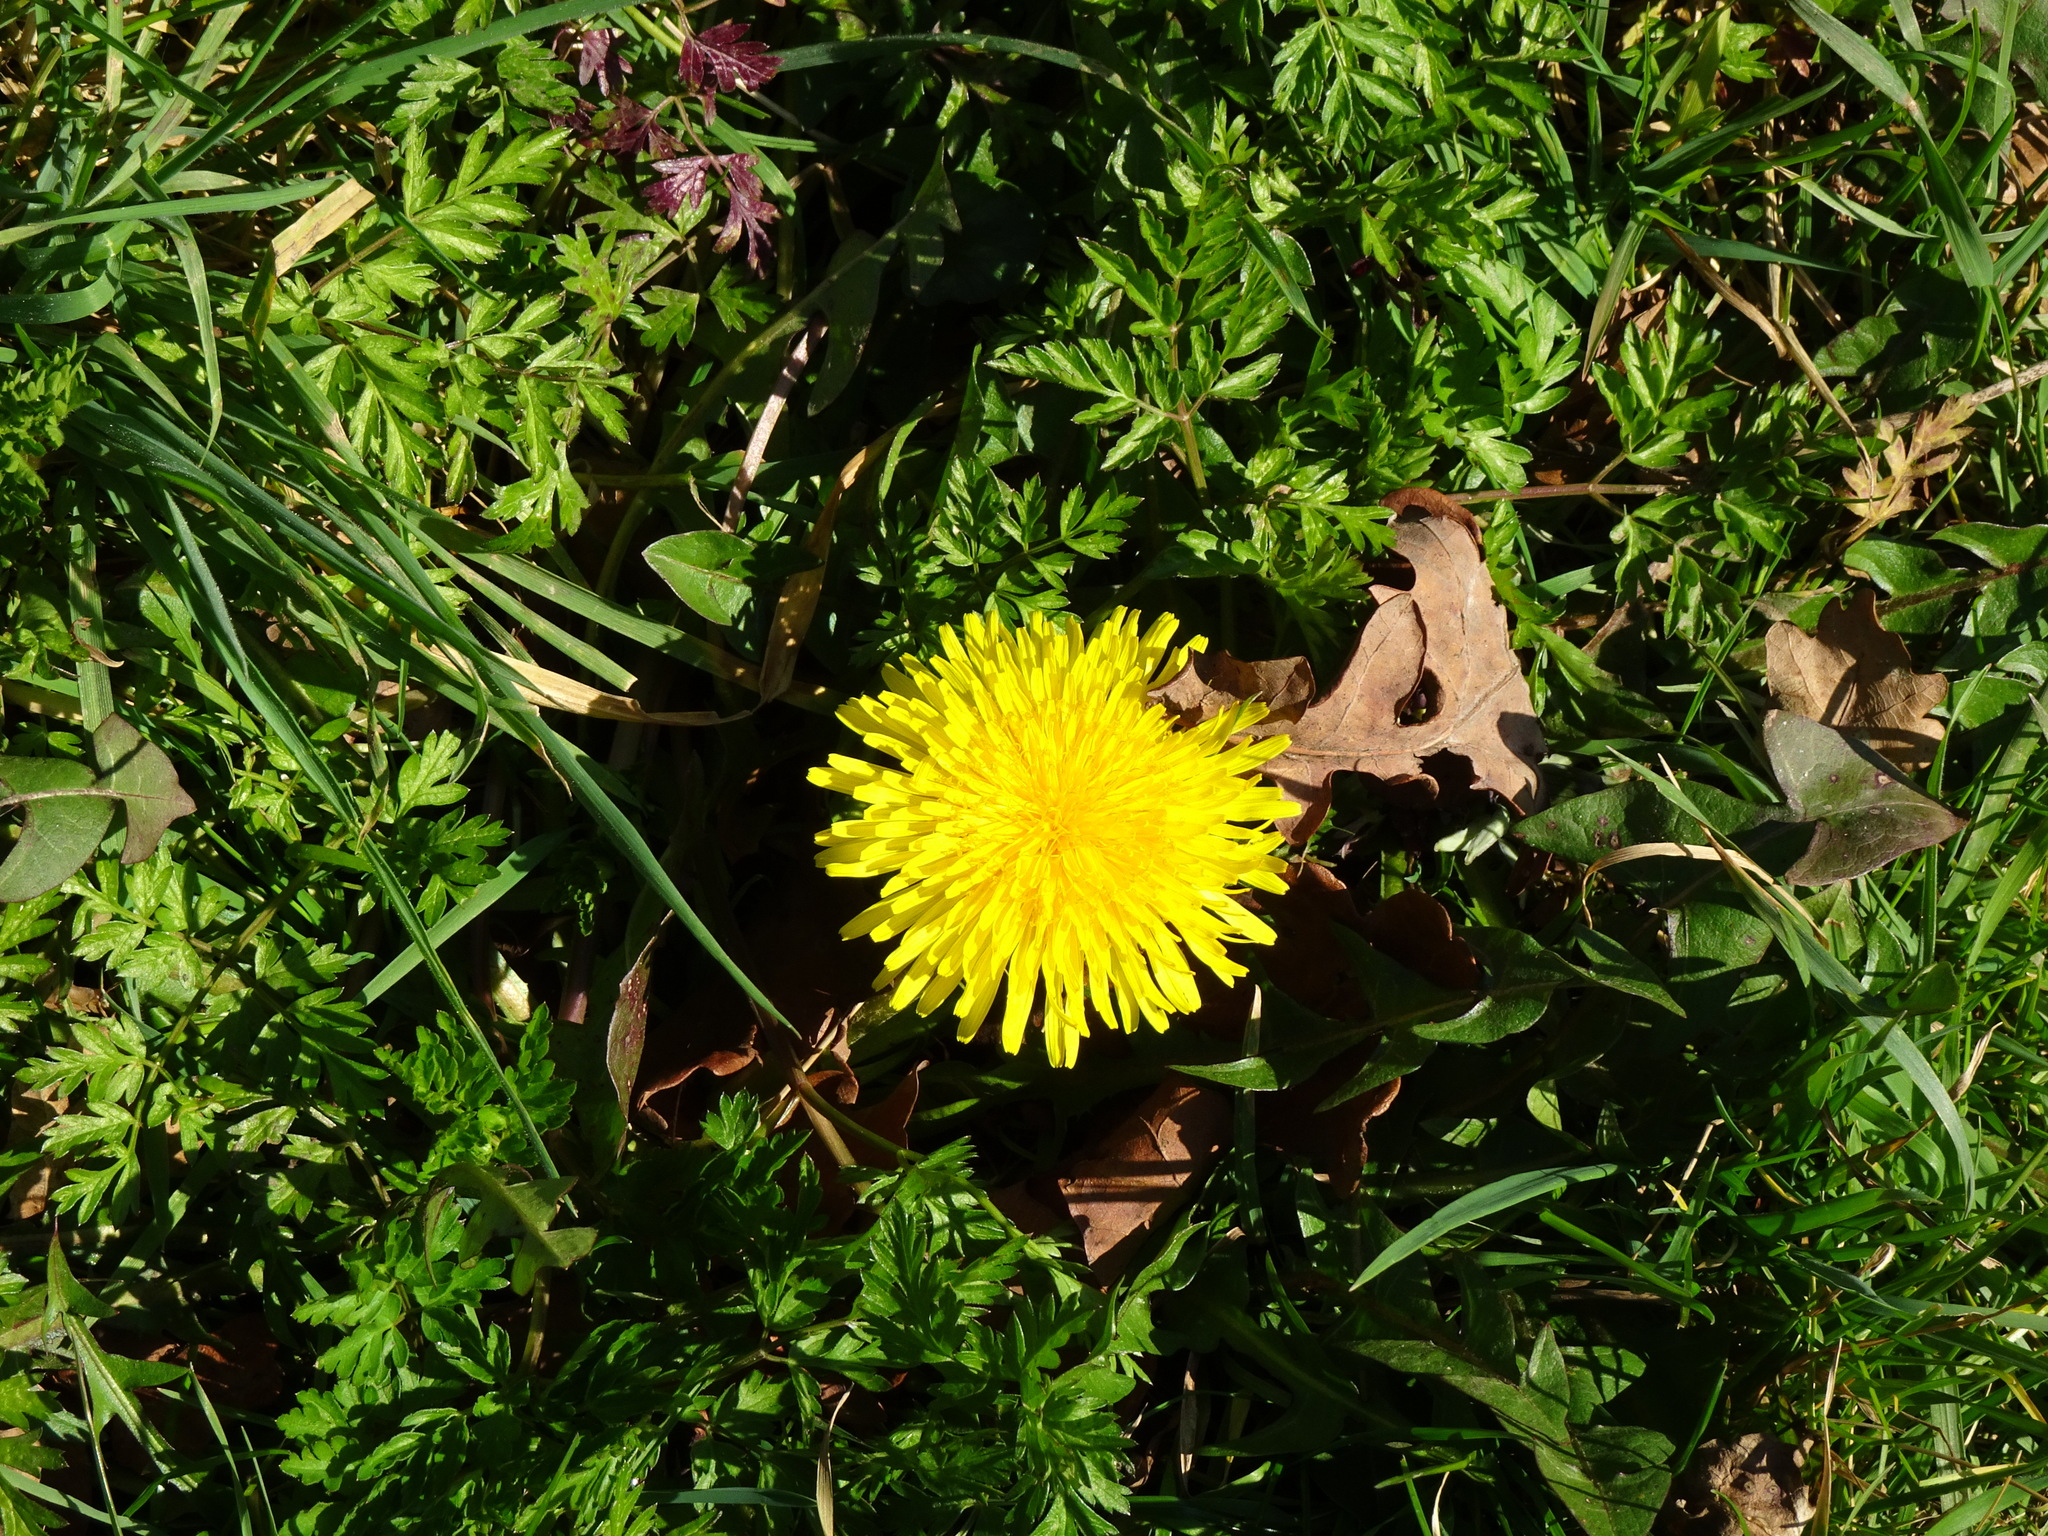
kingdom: Plantae
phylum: Tracheophyta
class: Magnoliopsida
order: Asterales
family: Asteraceae
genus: Taraxacum
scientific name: Taraxacum officinale
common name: Common dandelion
